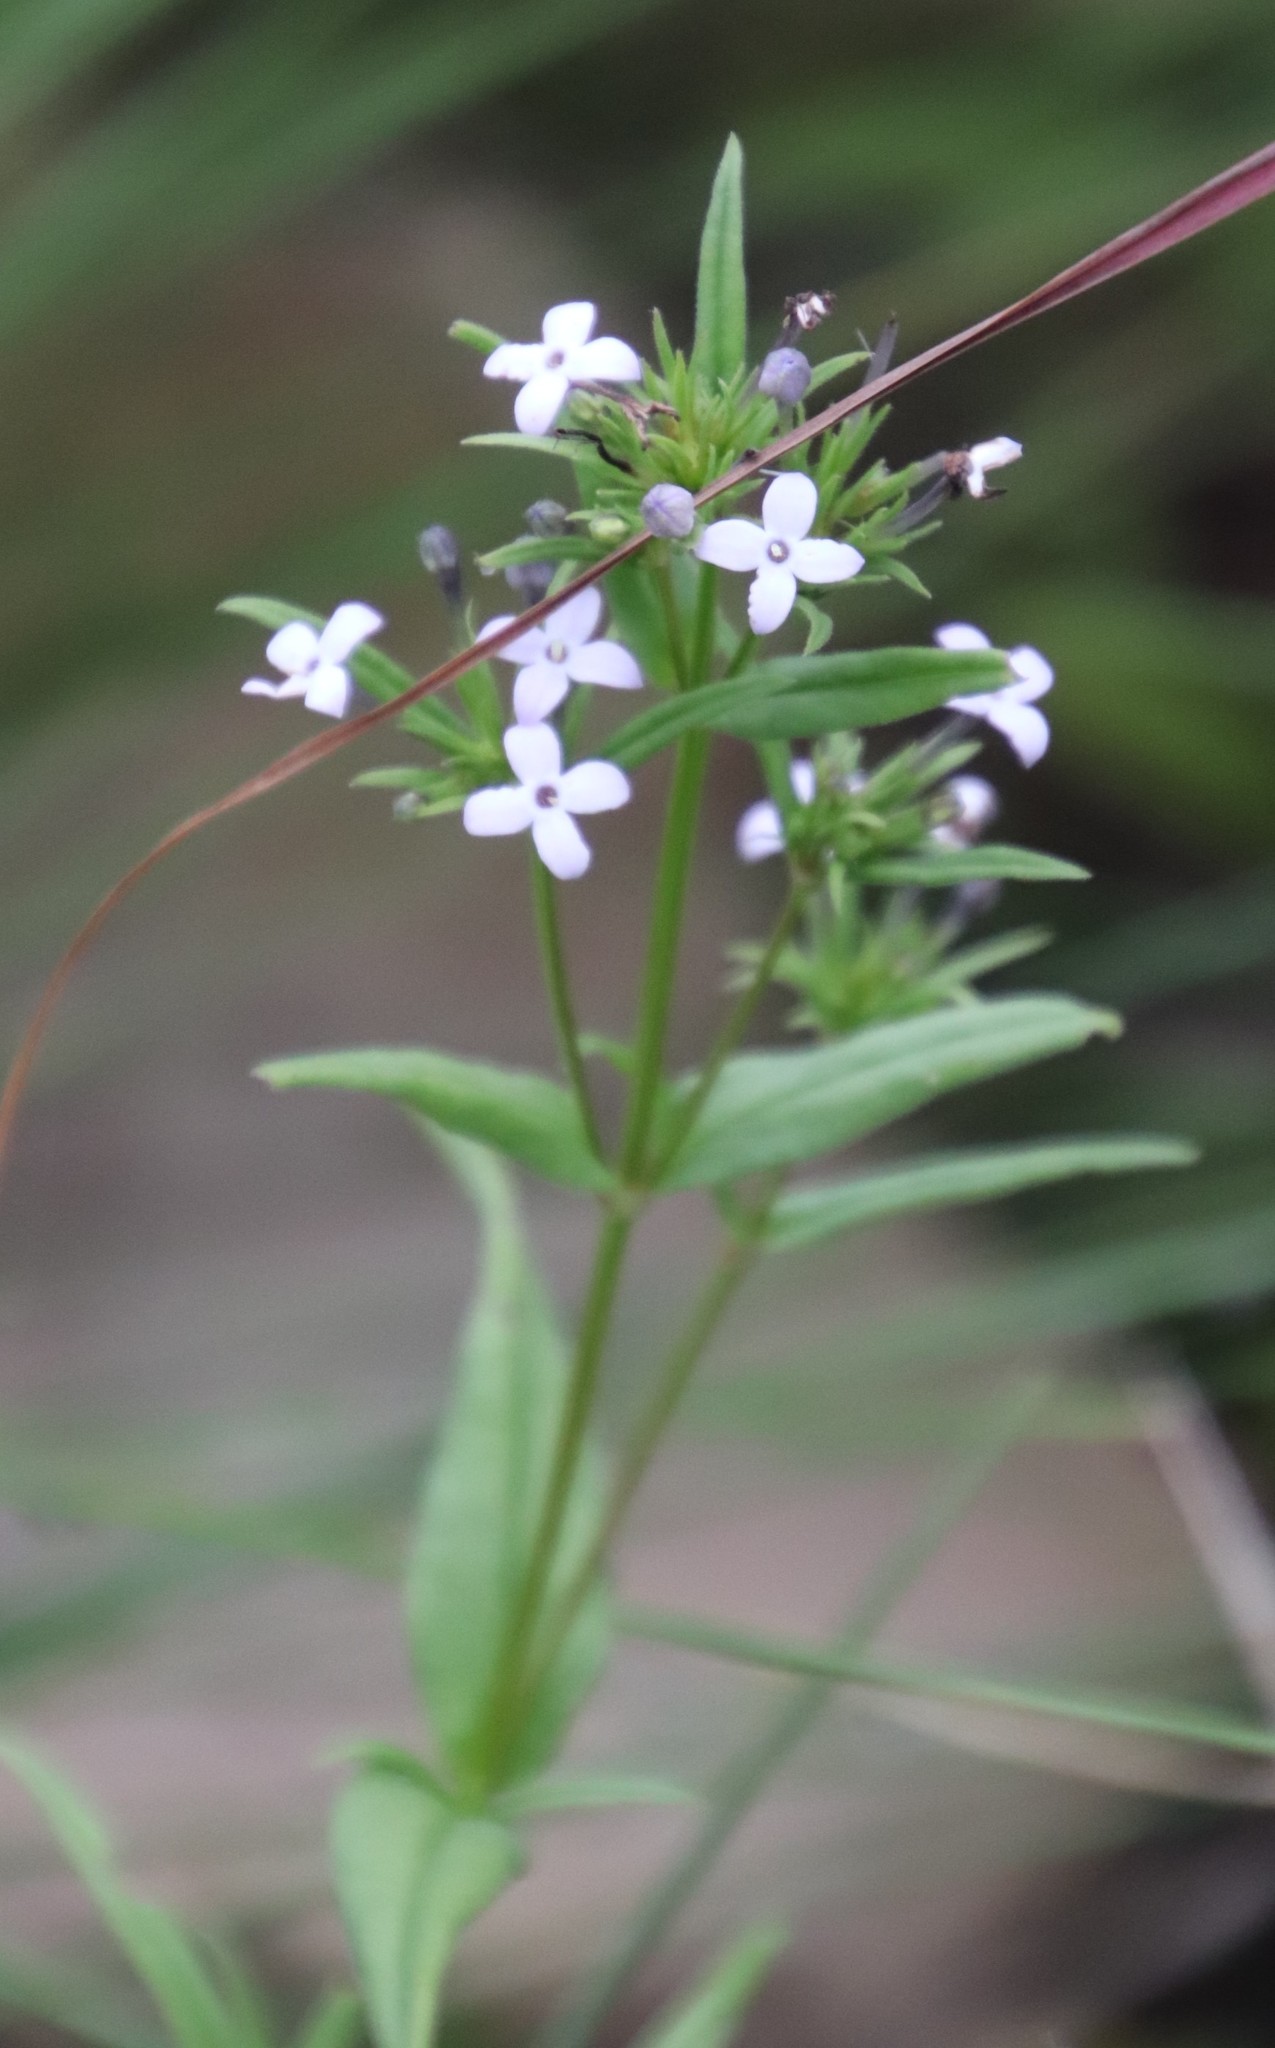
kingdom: Plantae
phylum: Tracheophyta
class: Magnoliopsida
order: Gentianales
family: Rubiaceae
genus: Conostomium
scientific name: Conostomium natalense
